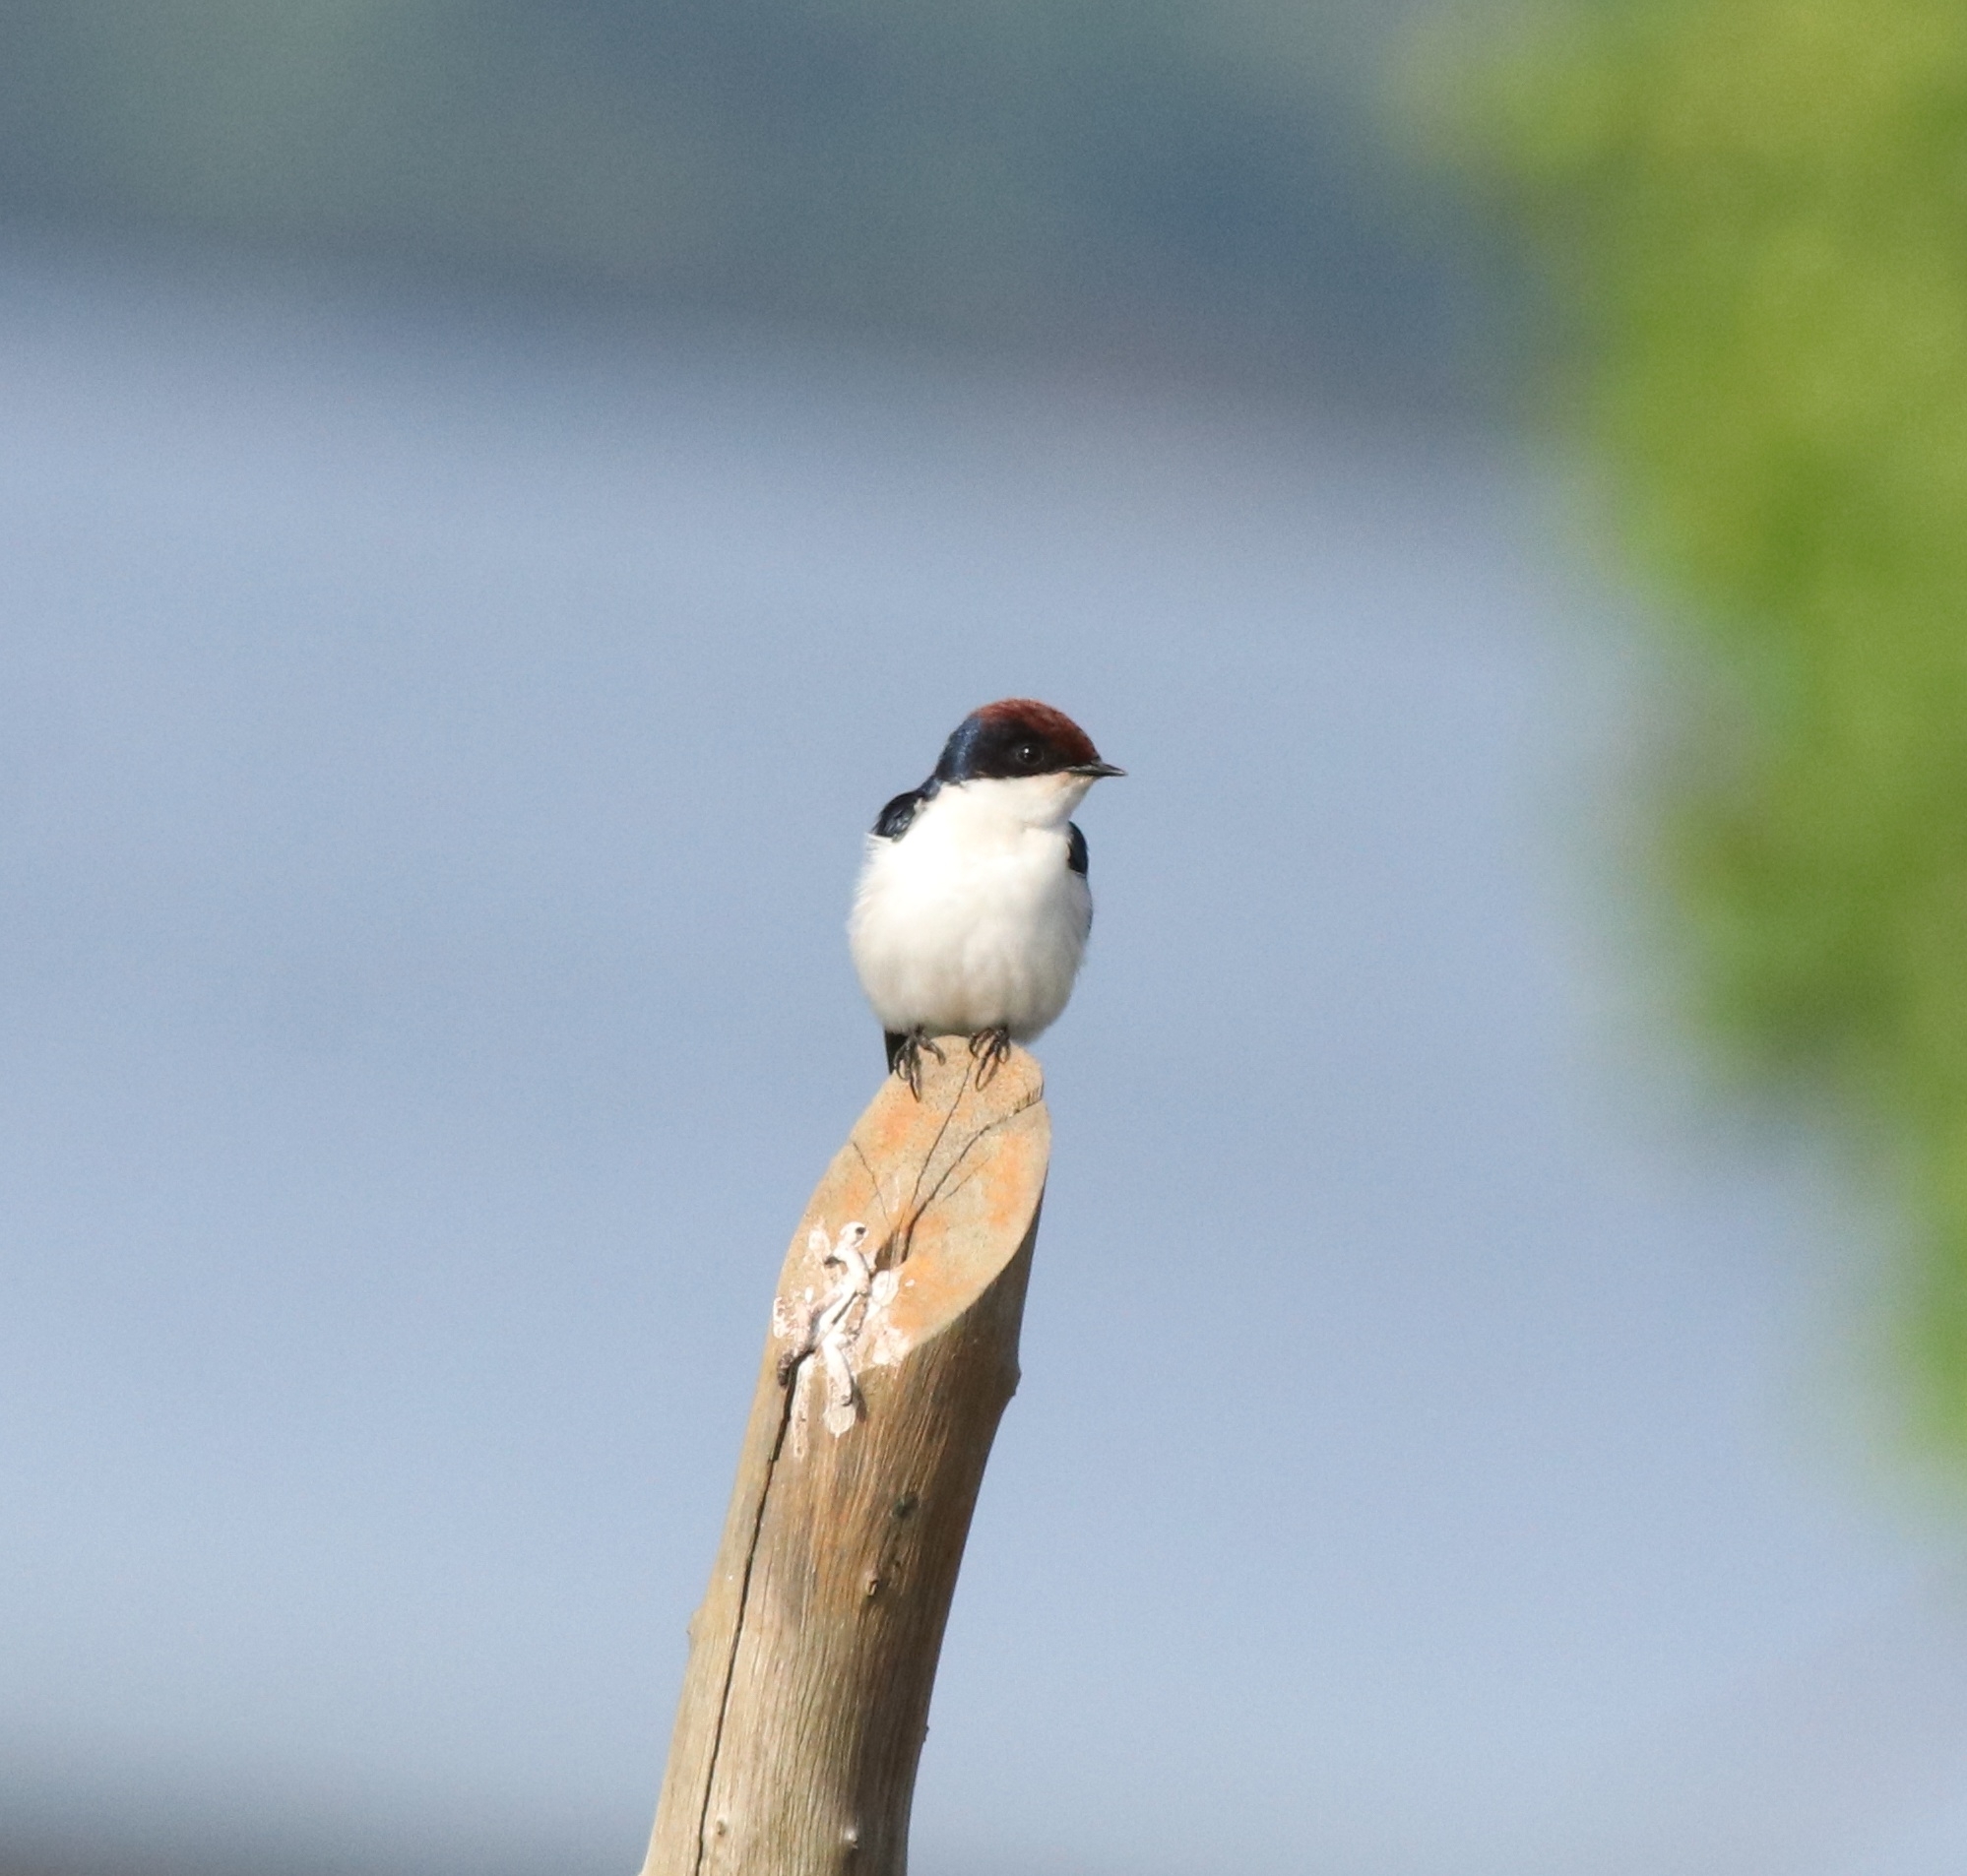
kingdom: Animalia
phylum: Chordata
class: Aves
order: Passeriformes
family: Hirundinidae
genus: Hirundo
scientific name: Hirundo smithii
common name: Wire-tailed swallow
